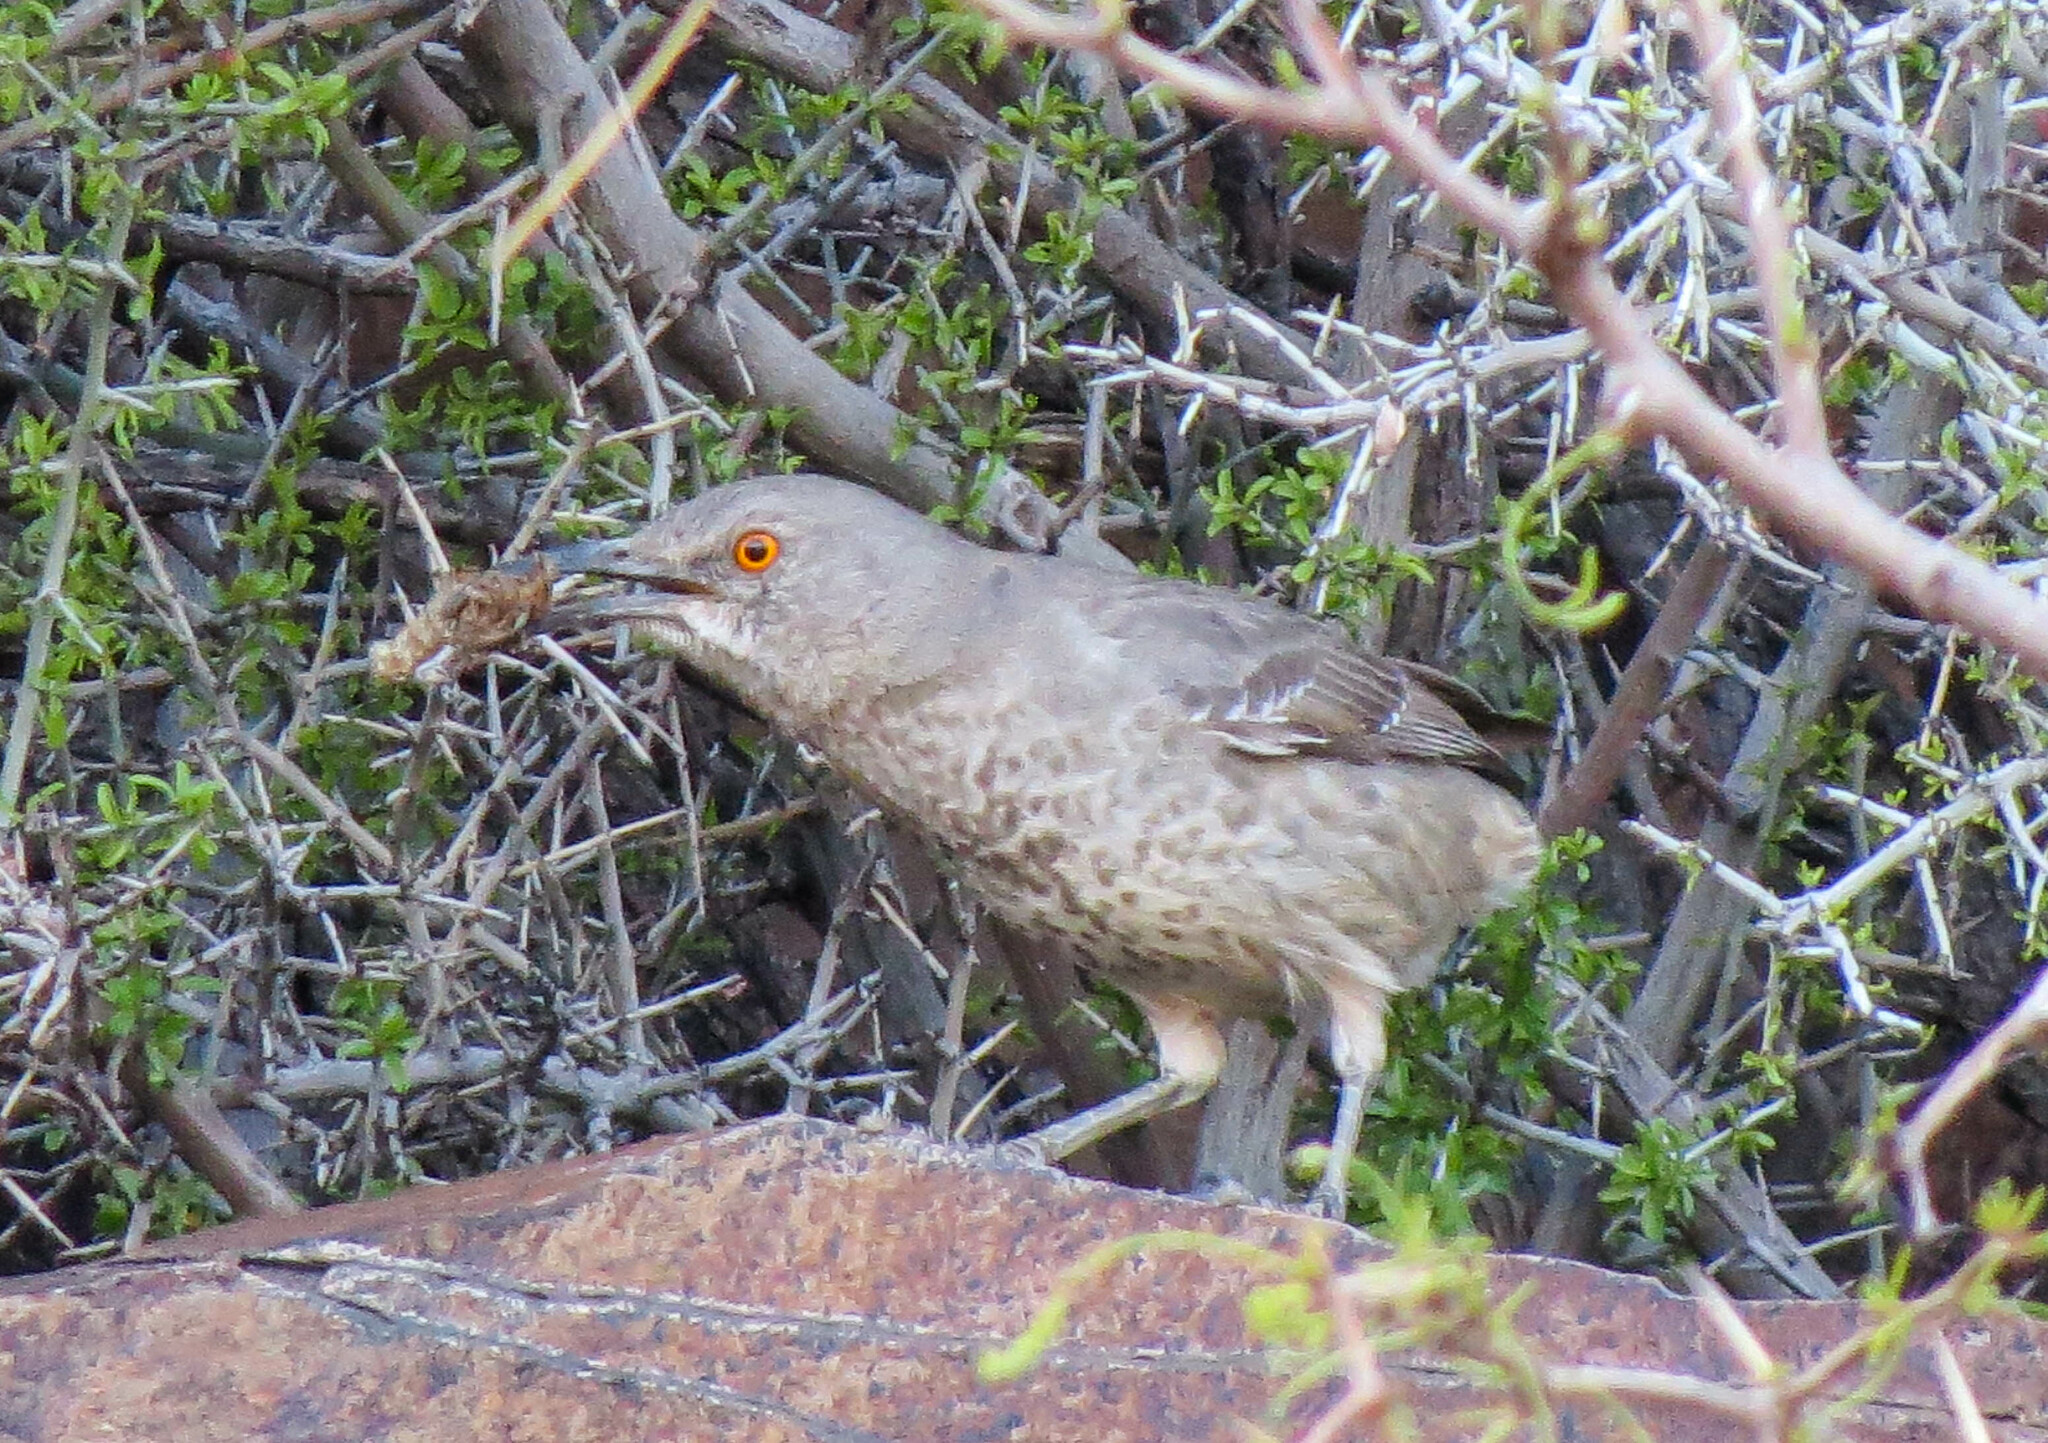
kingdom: Animalia
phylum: Chordata
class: Aves
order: Passeriformes
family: Mimidae
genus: Toxostoma
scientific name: Toxostoma curvirostre
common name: Curve-billed thrasher
